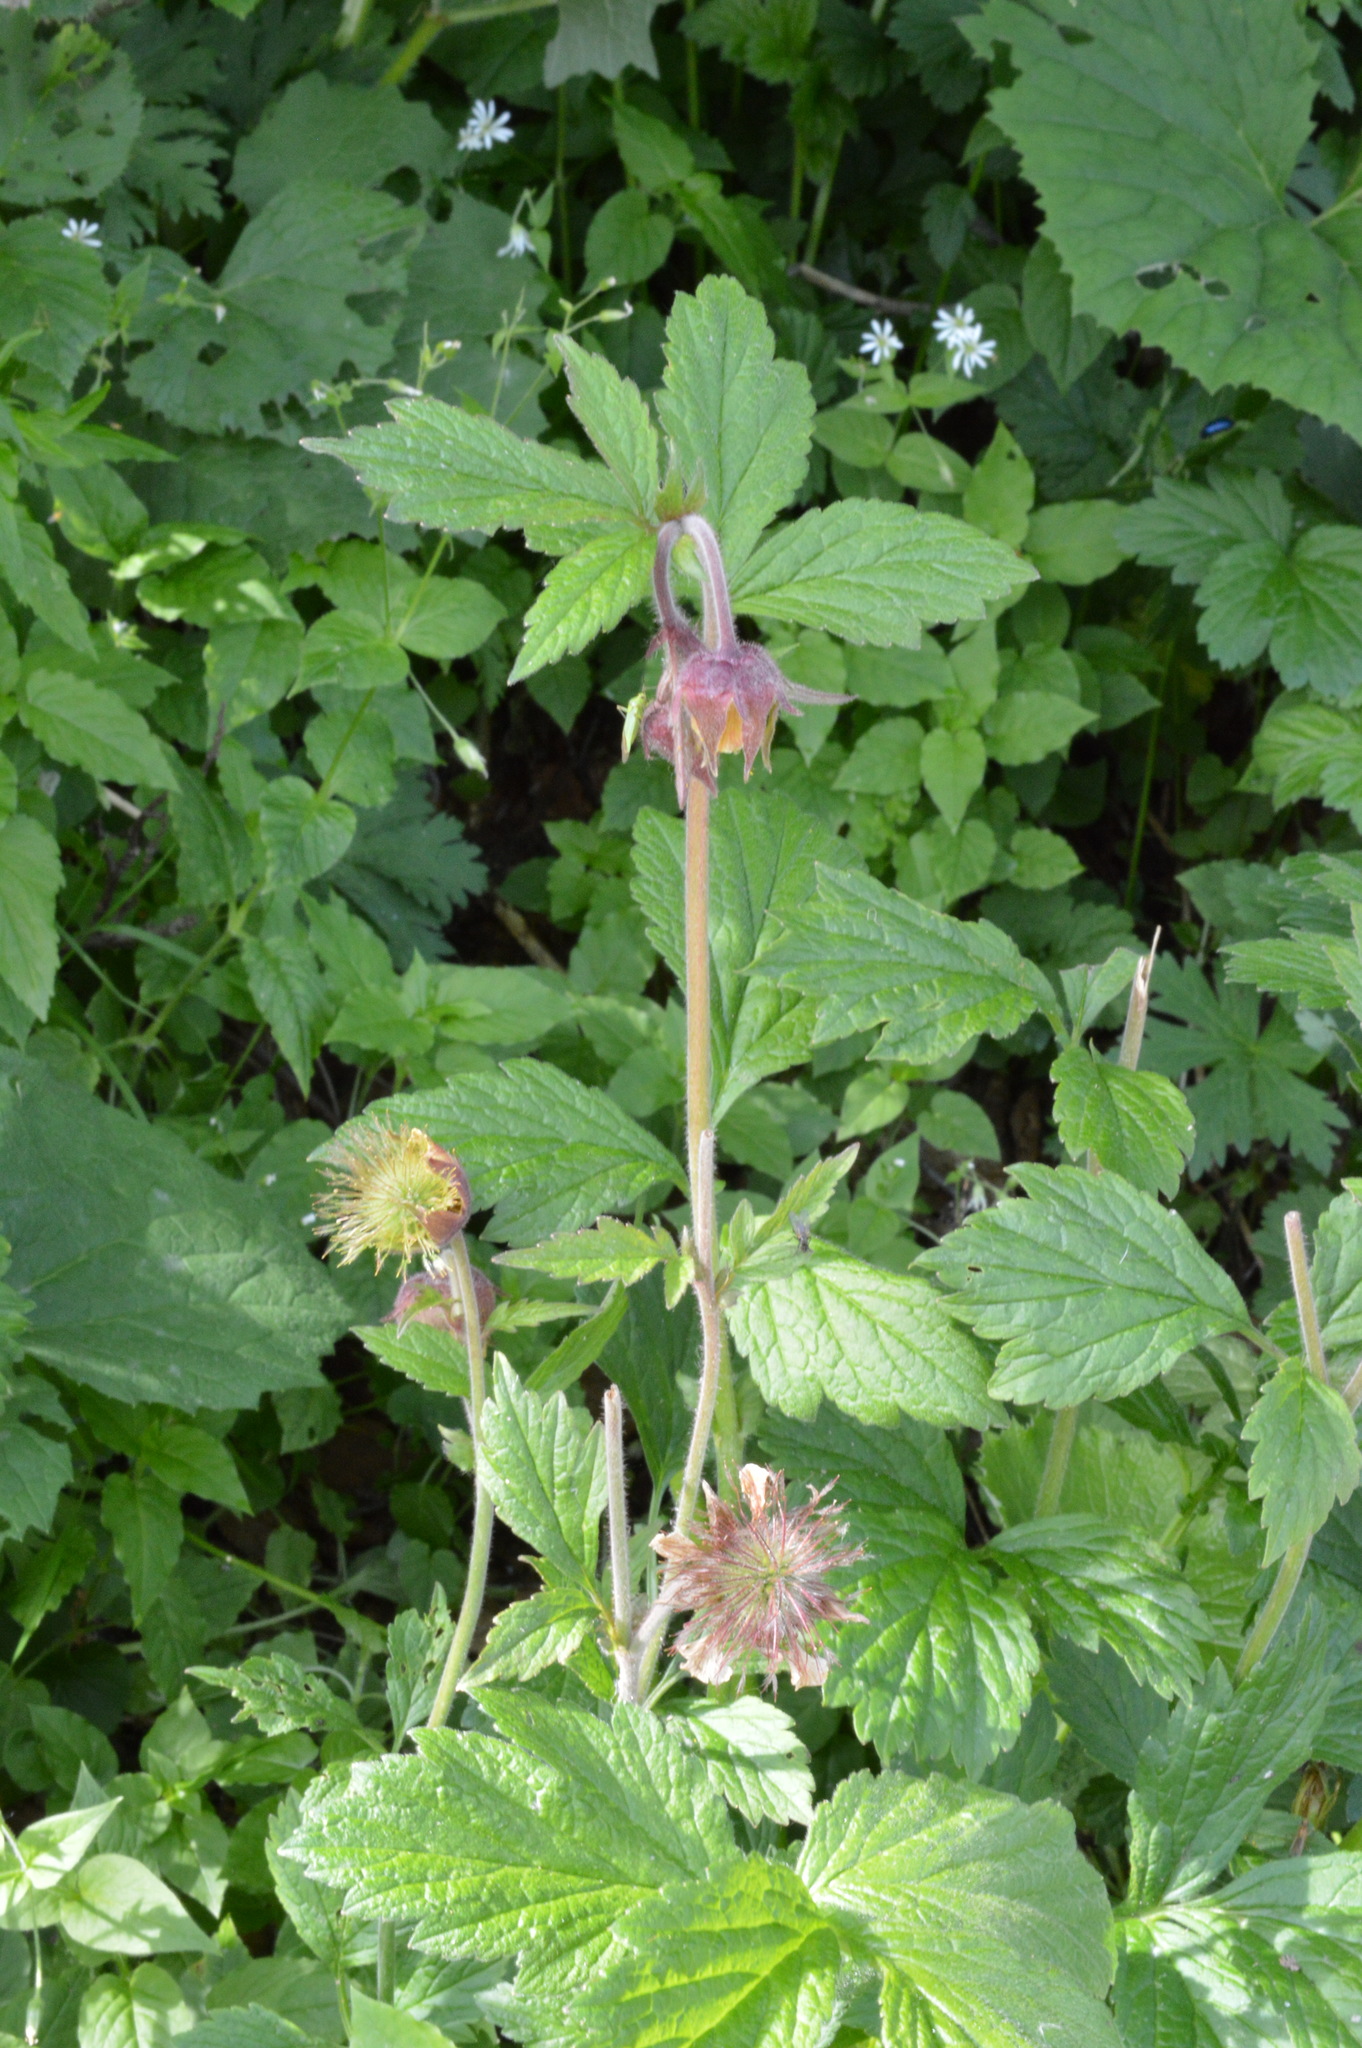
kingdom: Plantae
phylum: Tracheophyta
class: Magnoliopsida
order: Rosales
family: Rosaceae
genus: Geum
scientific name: Geum rivale
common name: Water avens
